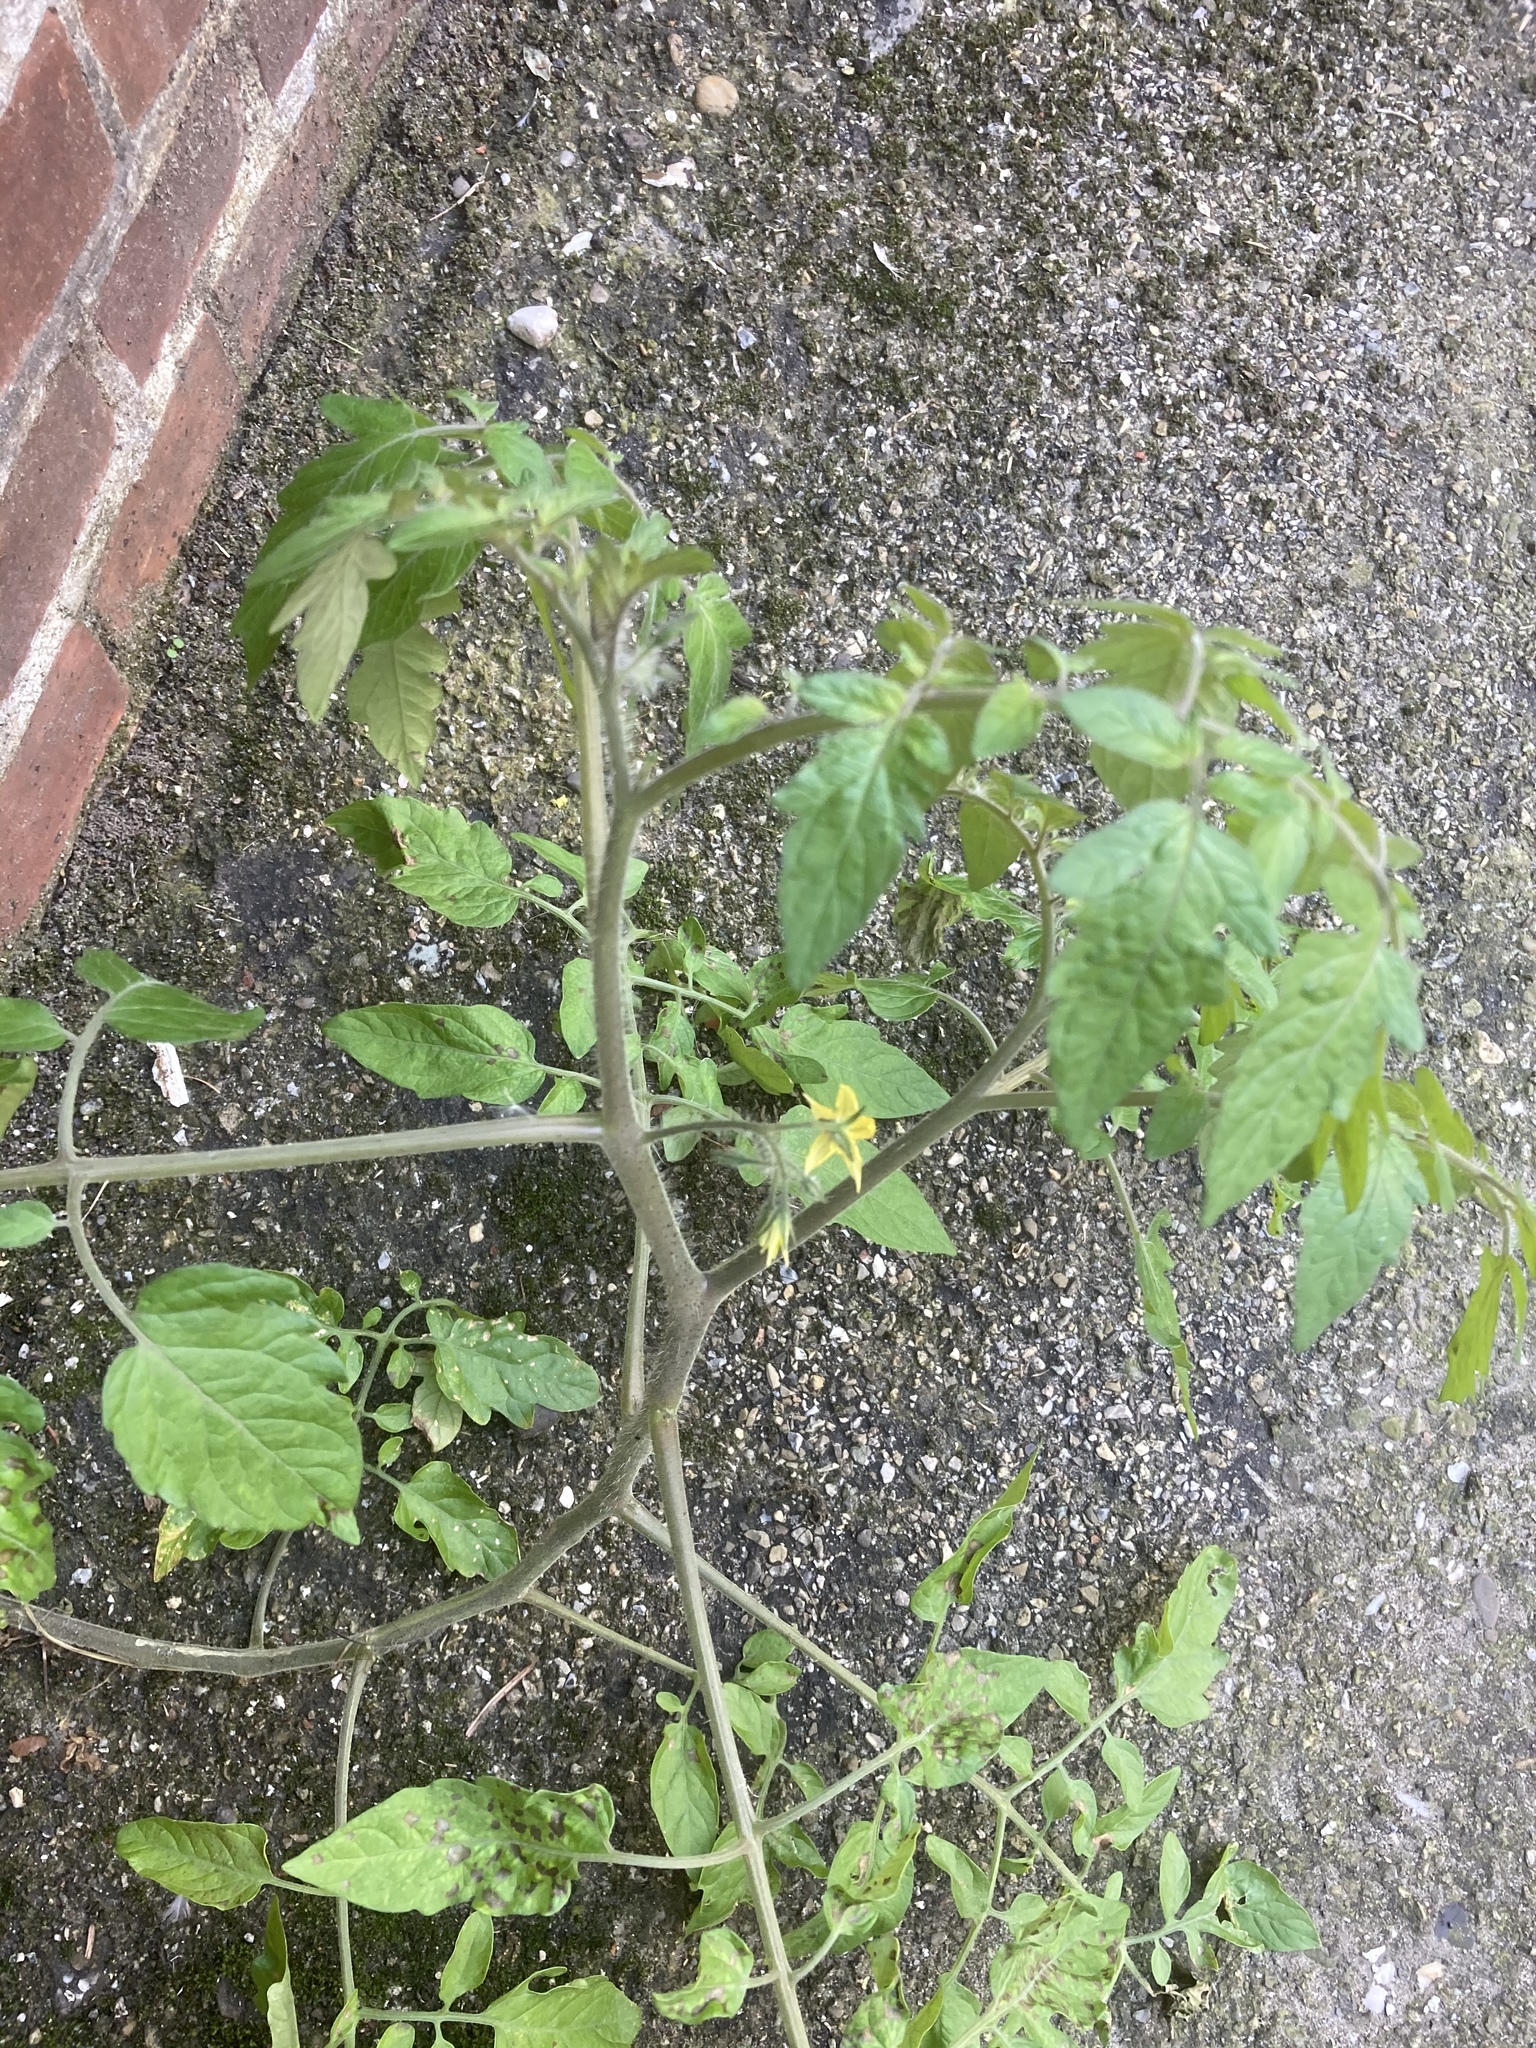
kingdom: Plantae
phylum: Tracheophyta
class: Magnoliopsida
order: Solanales
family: Solanaceae
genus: Solanum
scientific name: Solanum lycopersicum
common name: Garden tomato
